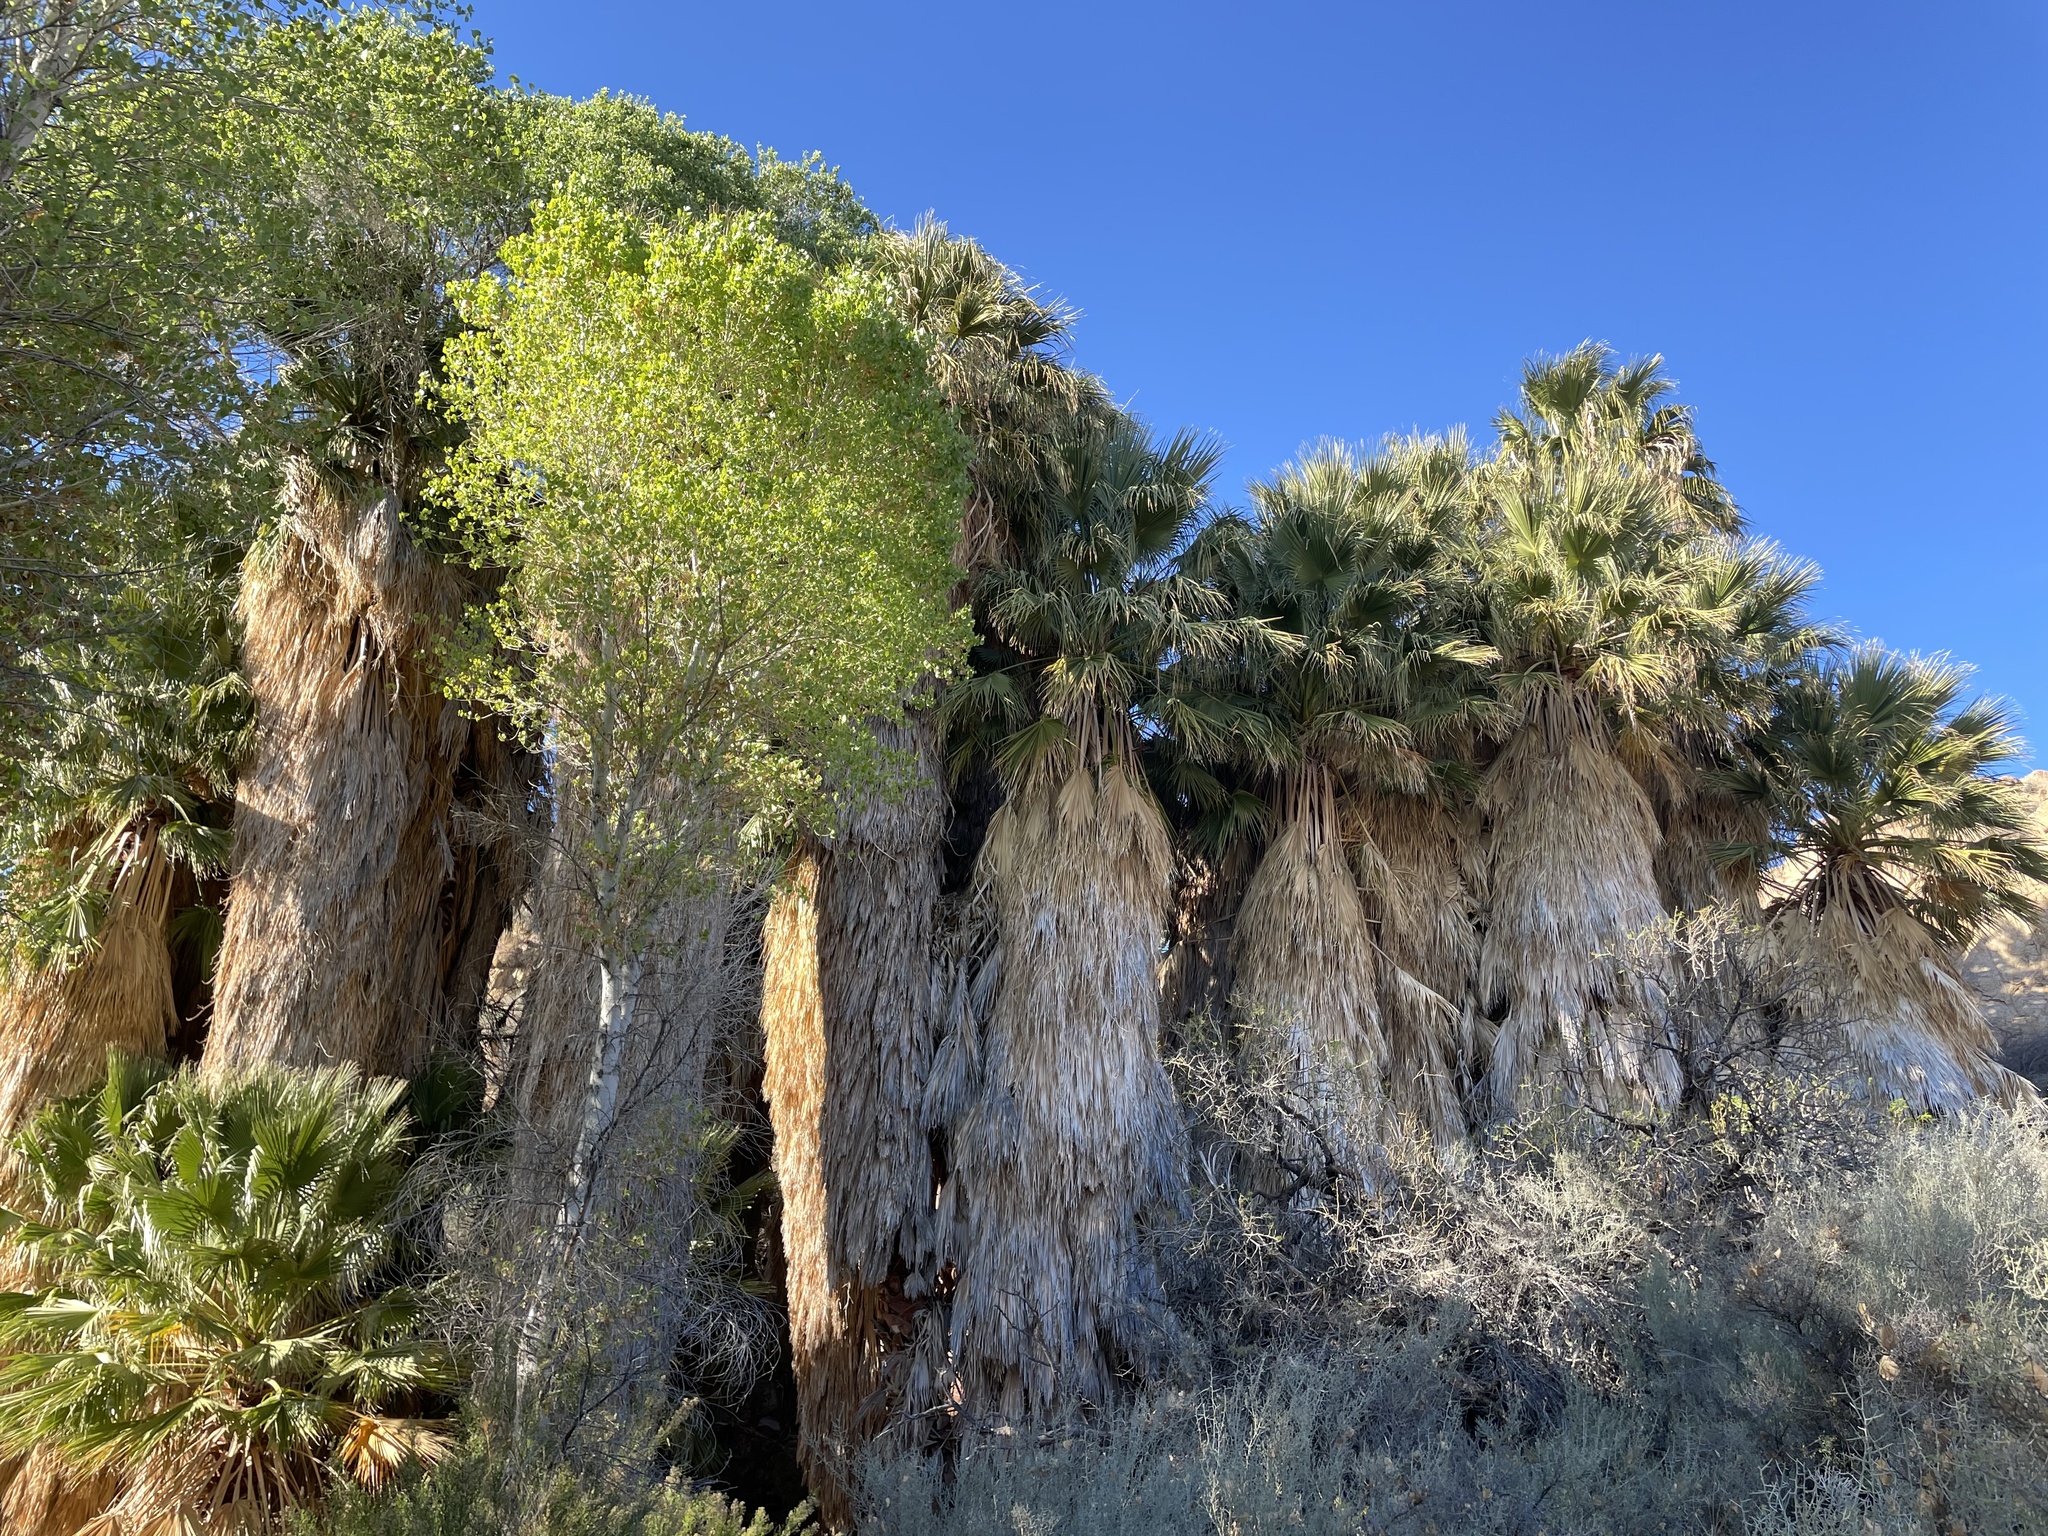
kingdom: Plantae
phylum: Tracheophyta
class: Liliopsida
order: Arecales
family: Arecaceae
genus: Washingtonia
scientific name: Washingtonia filifera
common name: California fan palm
